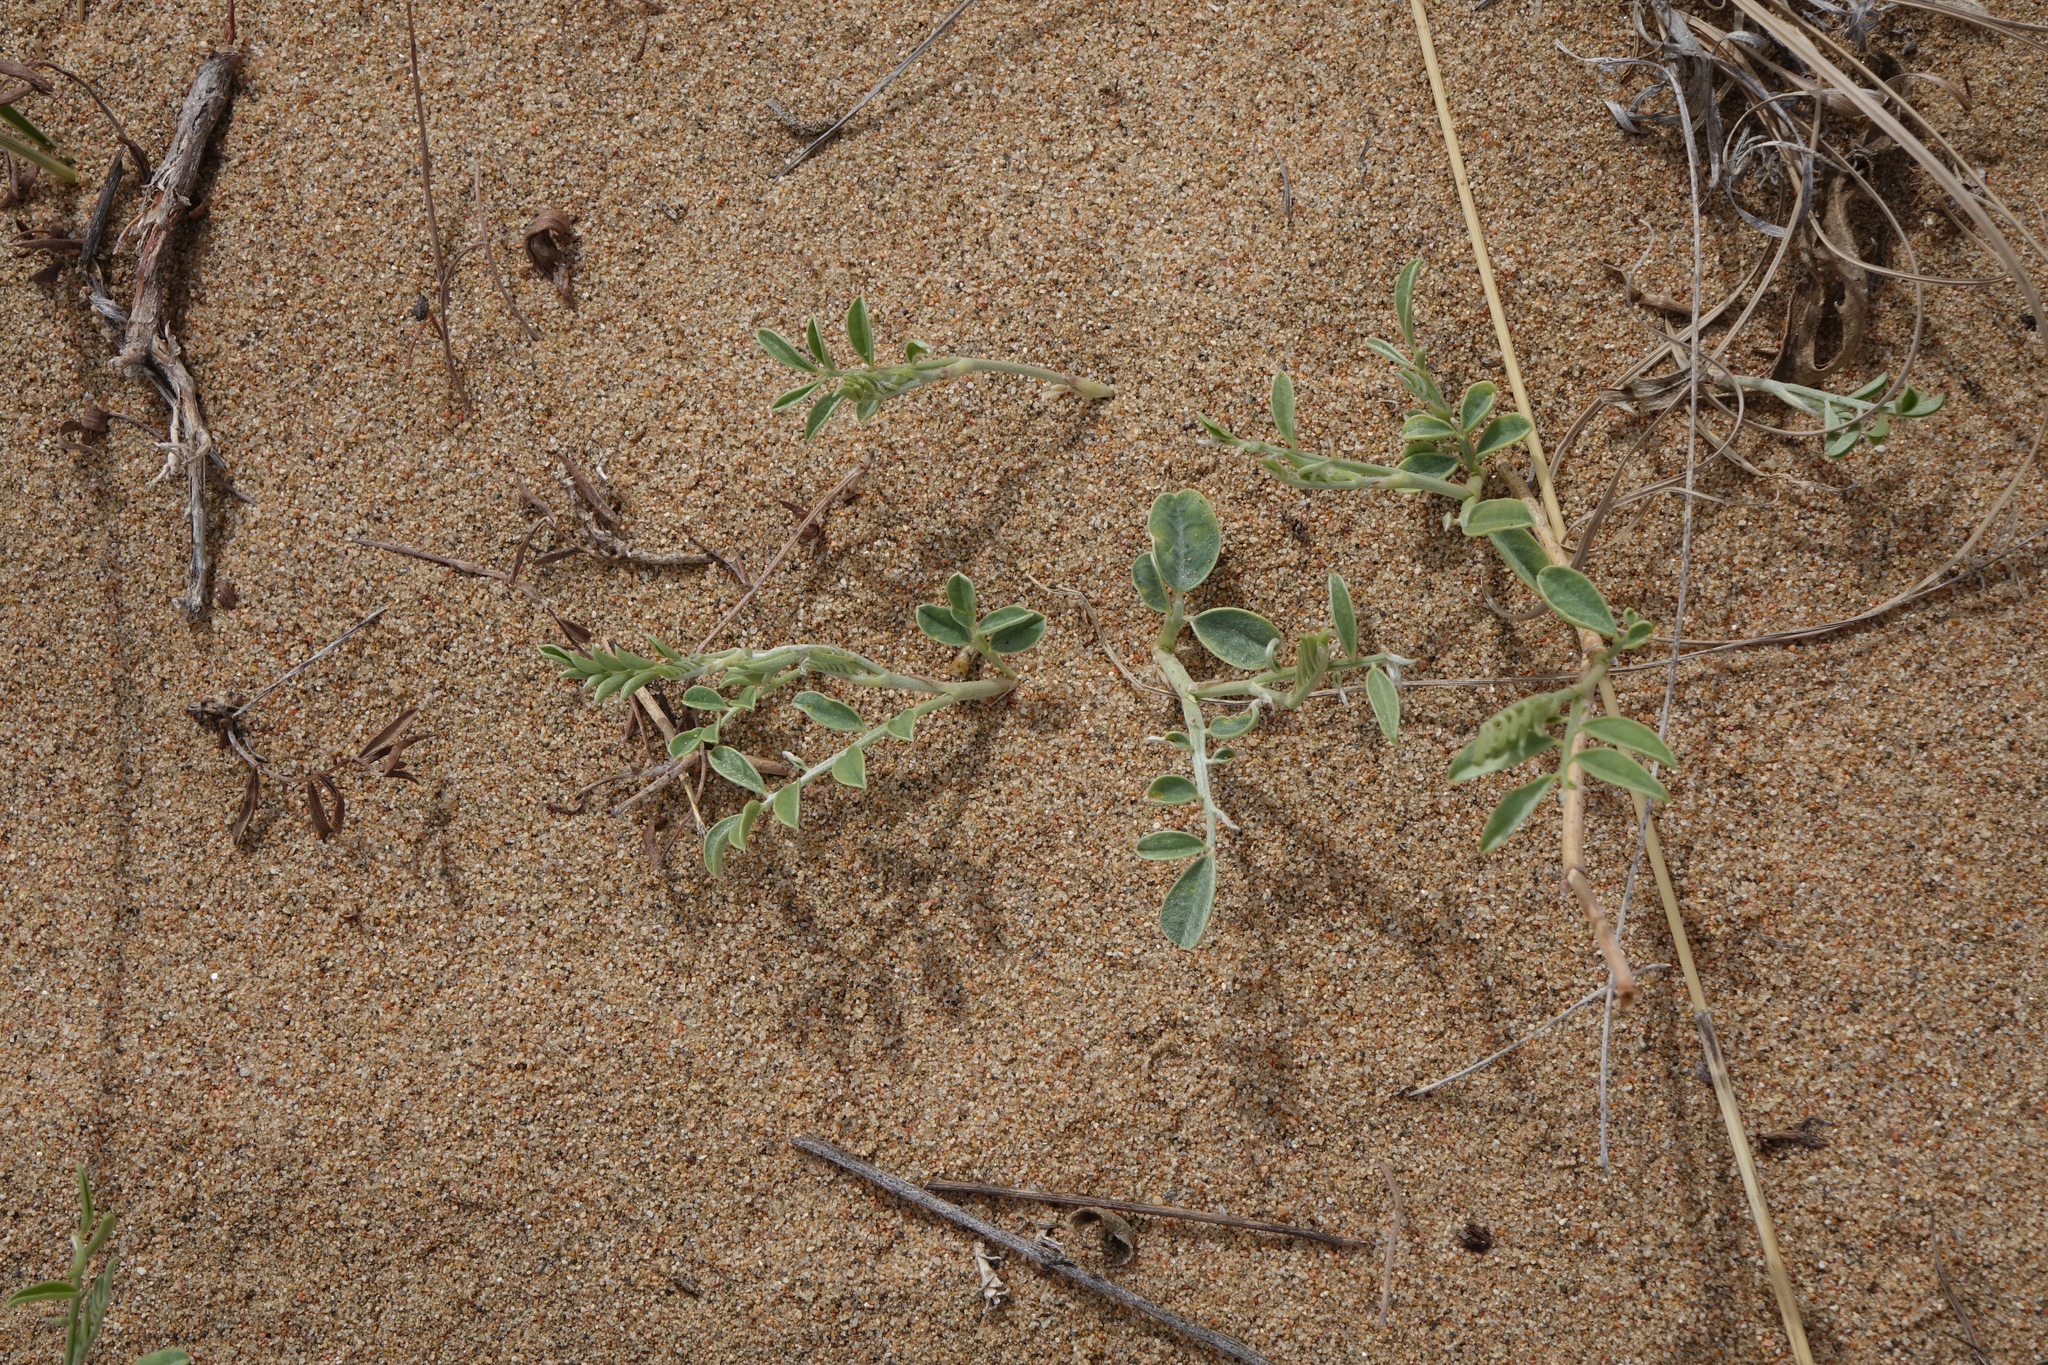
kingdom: Plantae
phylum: Tracheophyta
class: Magnoliopsida
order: Fabales
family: Fabaceae
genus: Corethrodendron
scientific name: Corethrodendron fruticosum
